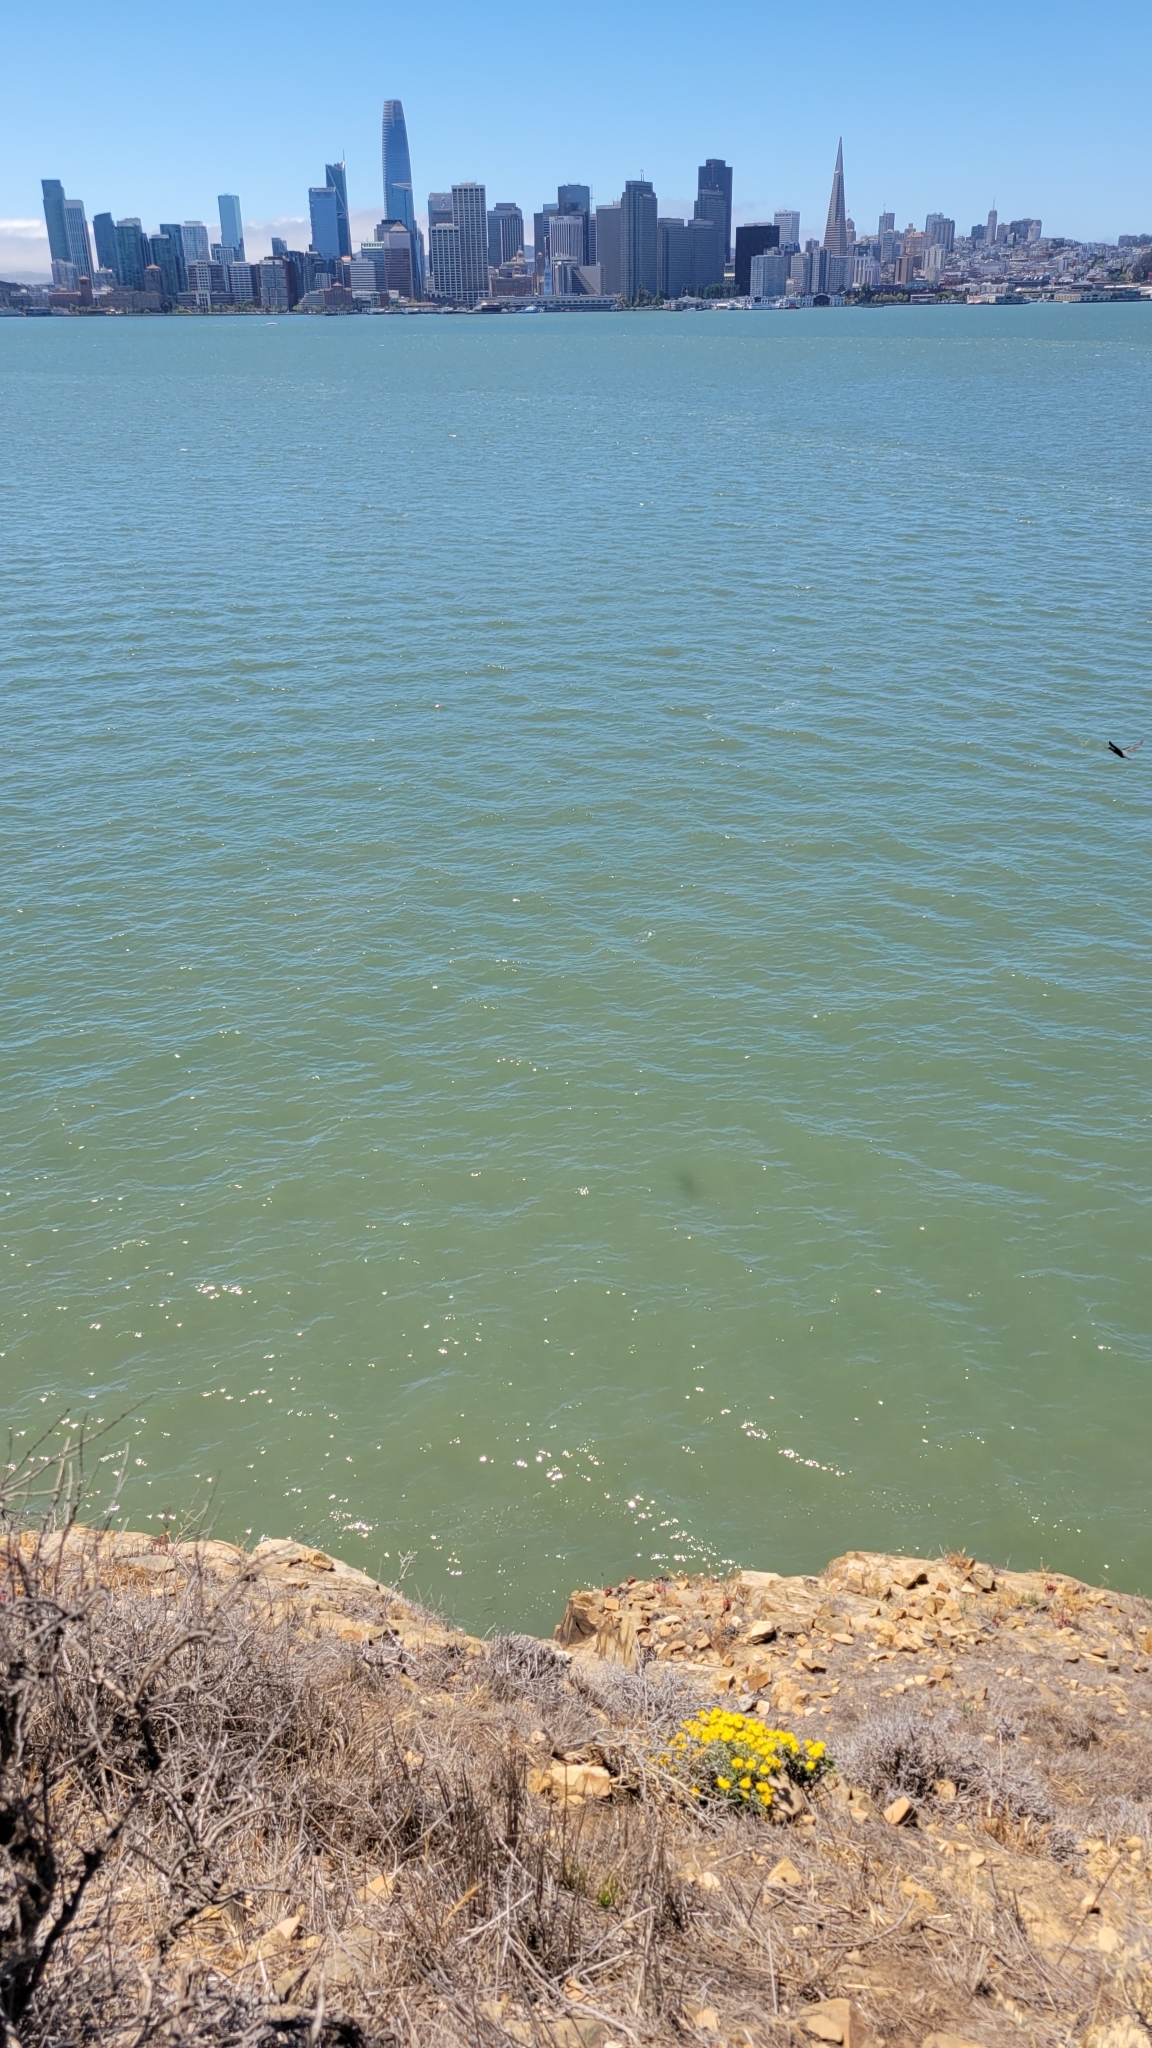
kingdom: Plantae
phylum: Tracheophyta
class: Magnoliopsida
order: Asterales
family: Asteraceae
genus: Eriophyllum
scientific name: Eriophyllum staechadifolium
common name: Lizardtail
